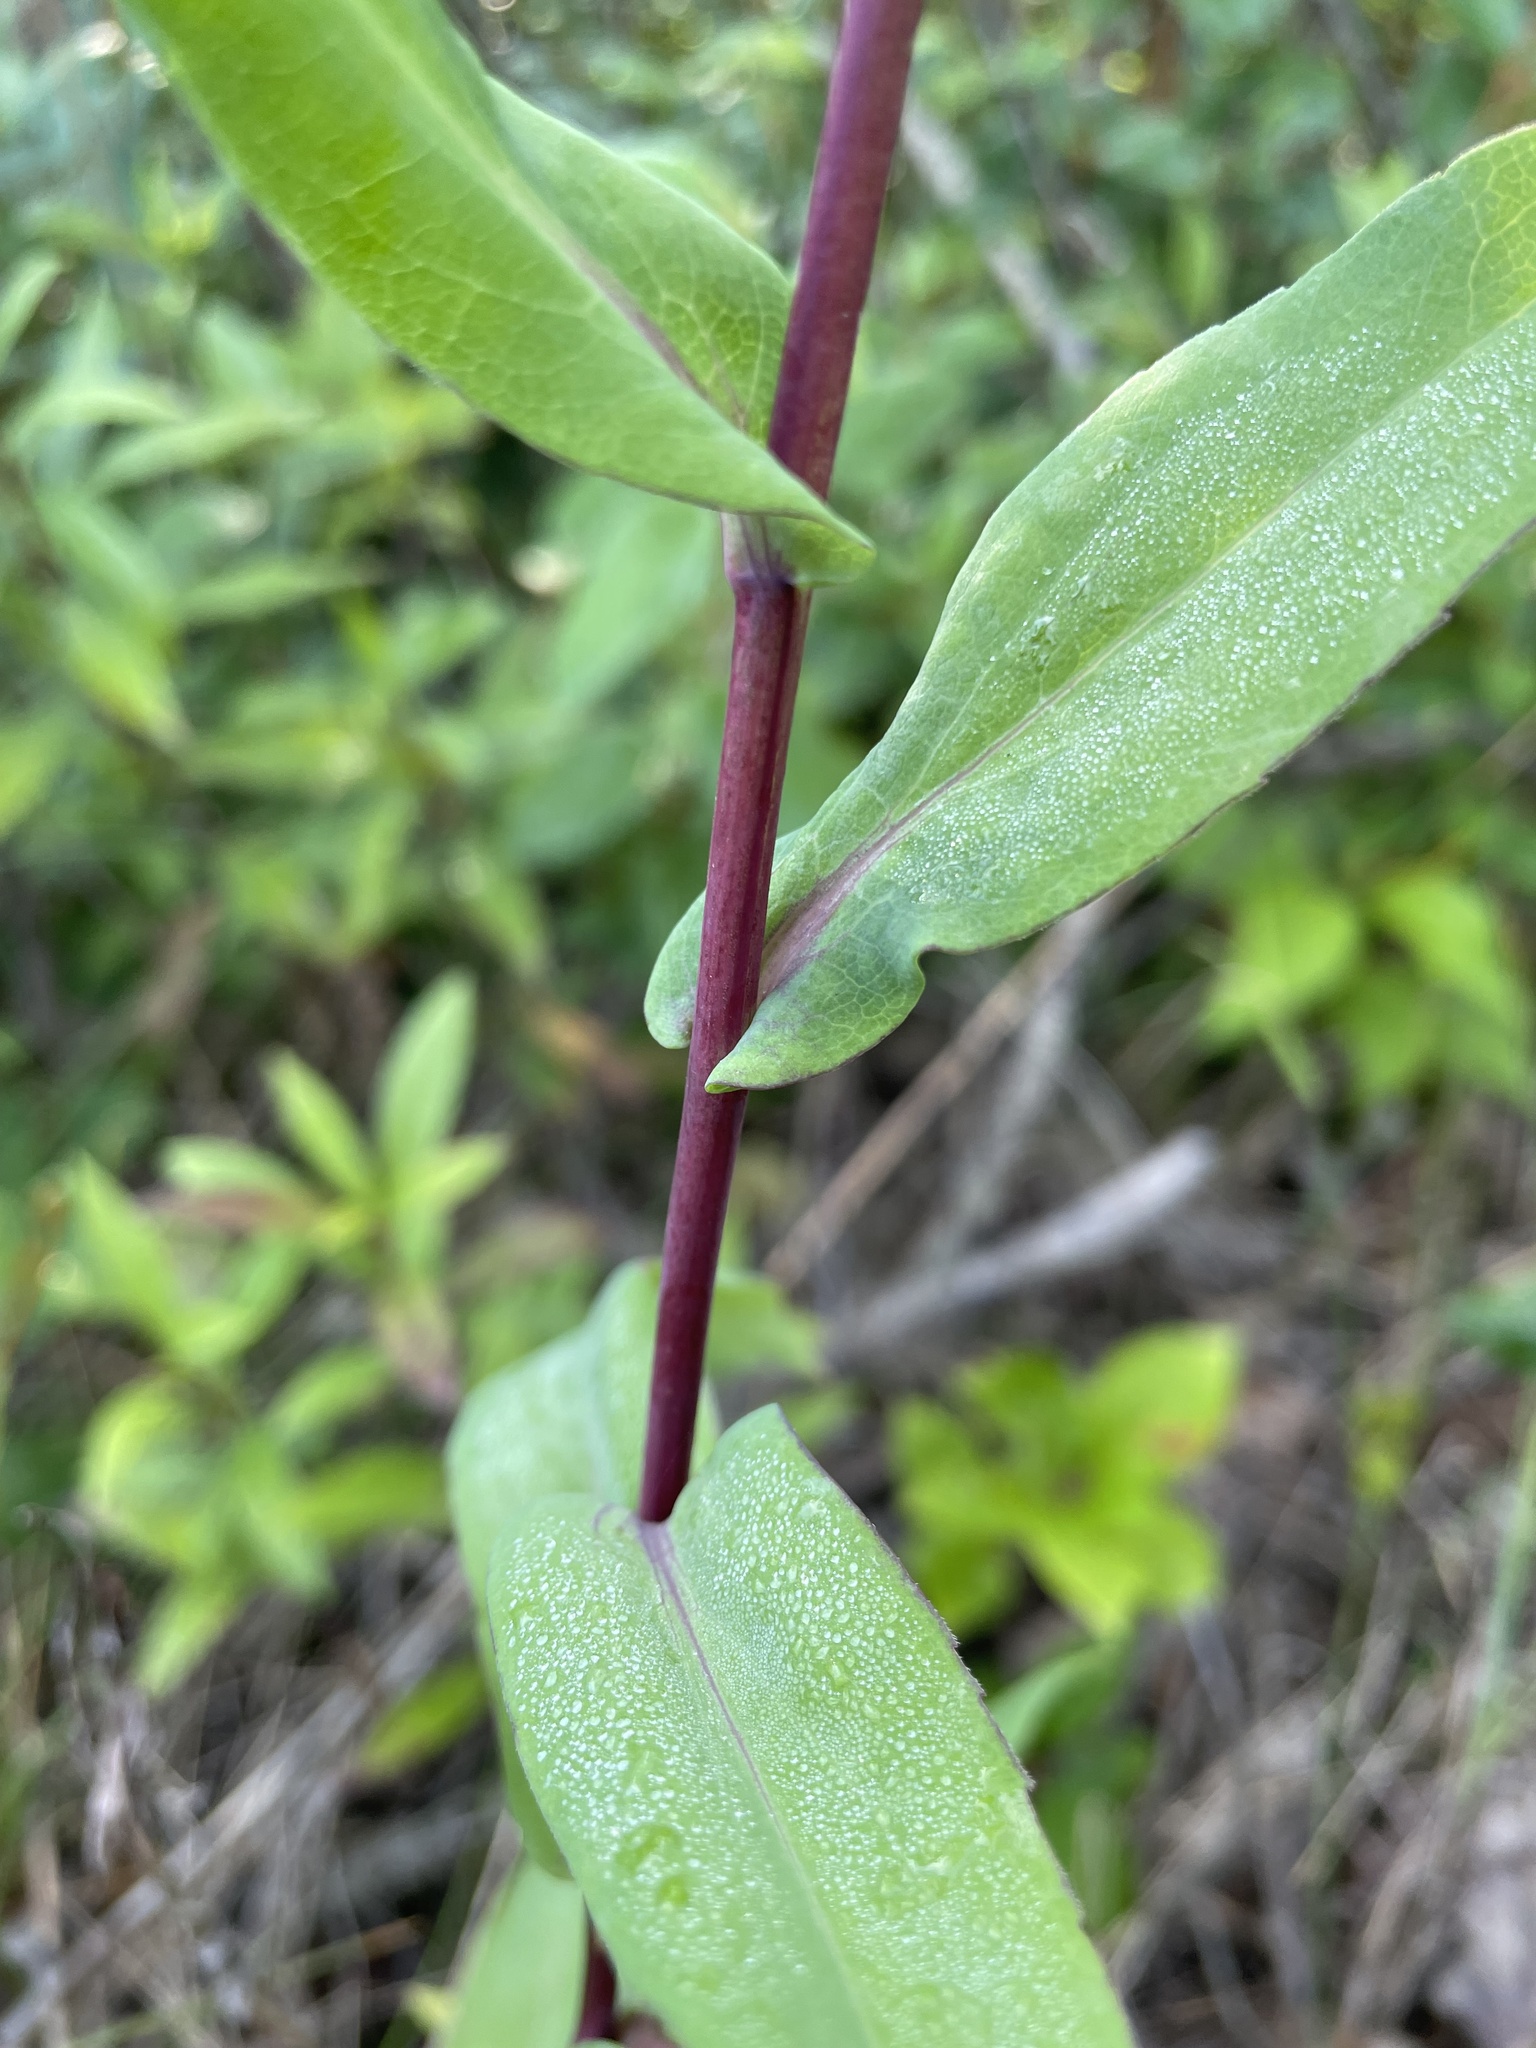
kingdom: Plantae
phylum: Tracheophyta
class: Magnoliopsida
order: Asterales
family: Asteraceae
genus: Symphyotrichum
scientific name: Symphyotrichum laeve
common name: Glaucous aster
